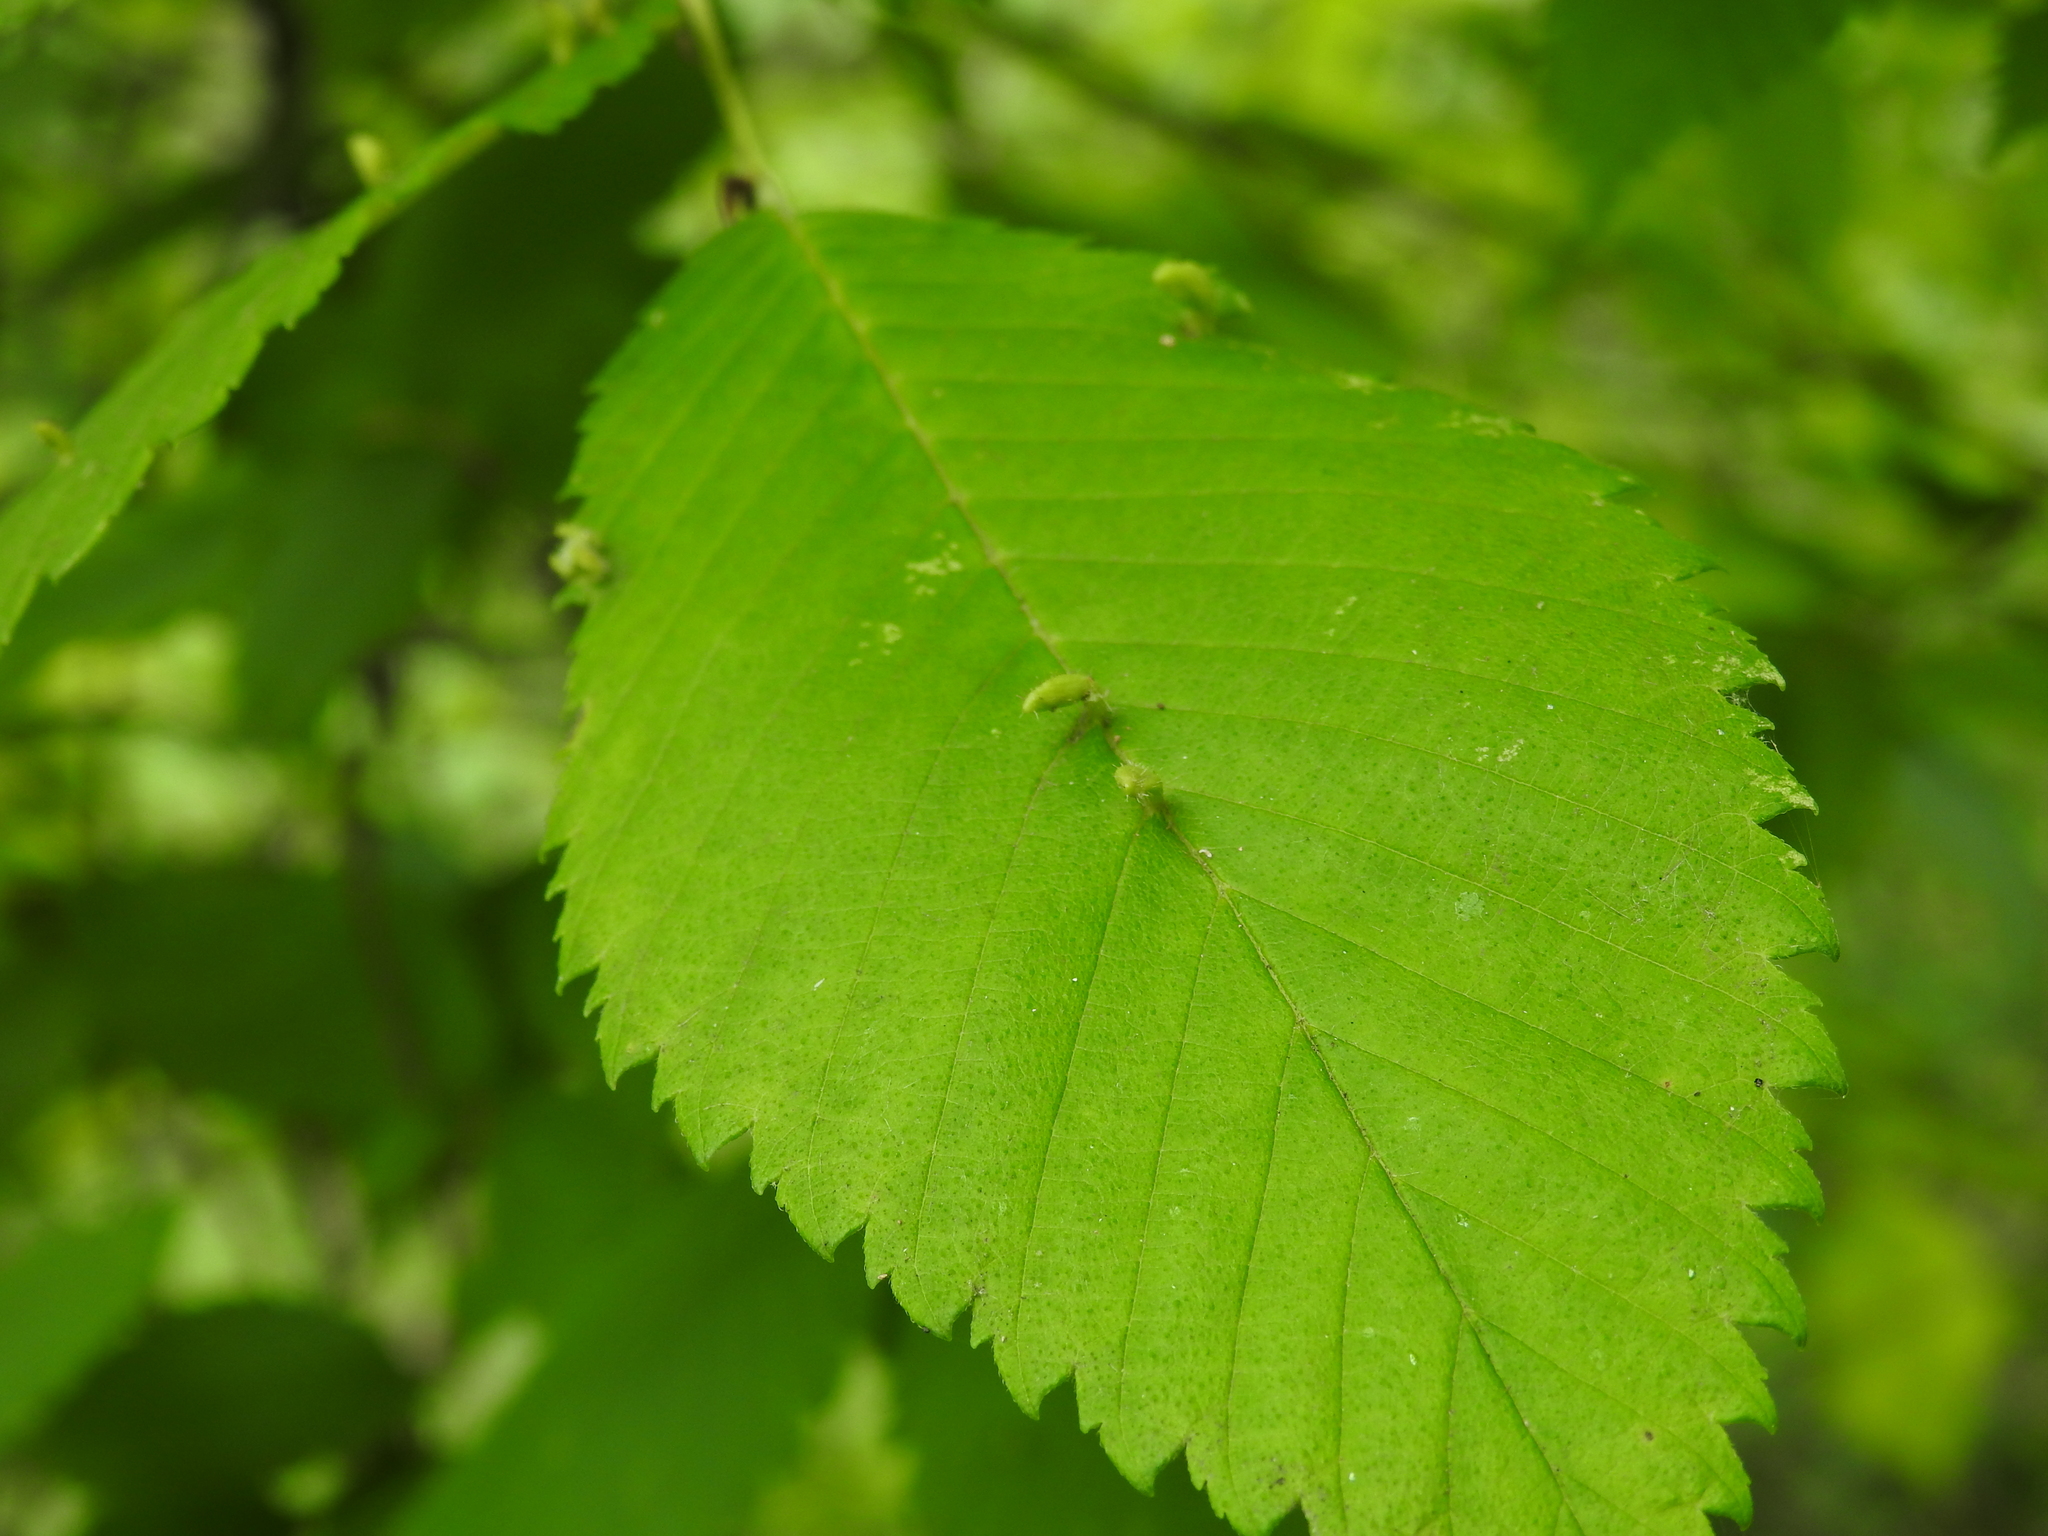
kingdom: Animalia
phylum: Arthropoda
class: Arachnida
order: Trombidiformes
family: Eriophyidae
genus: Aceria
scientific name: Aceria
